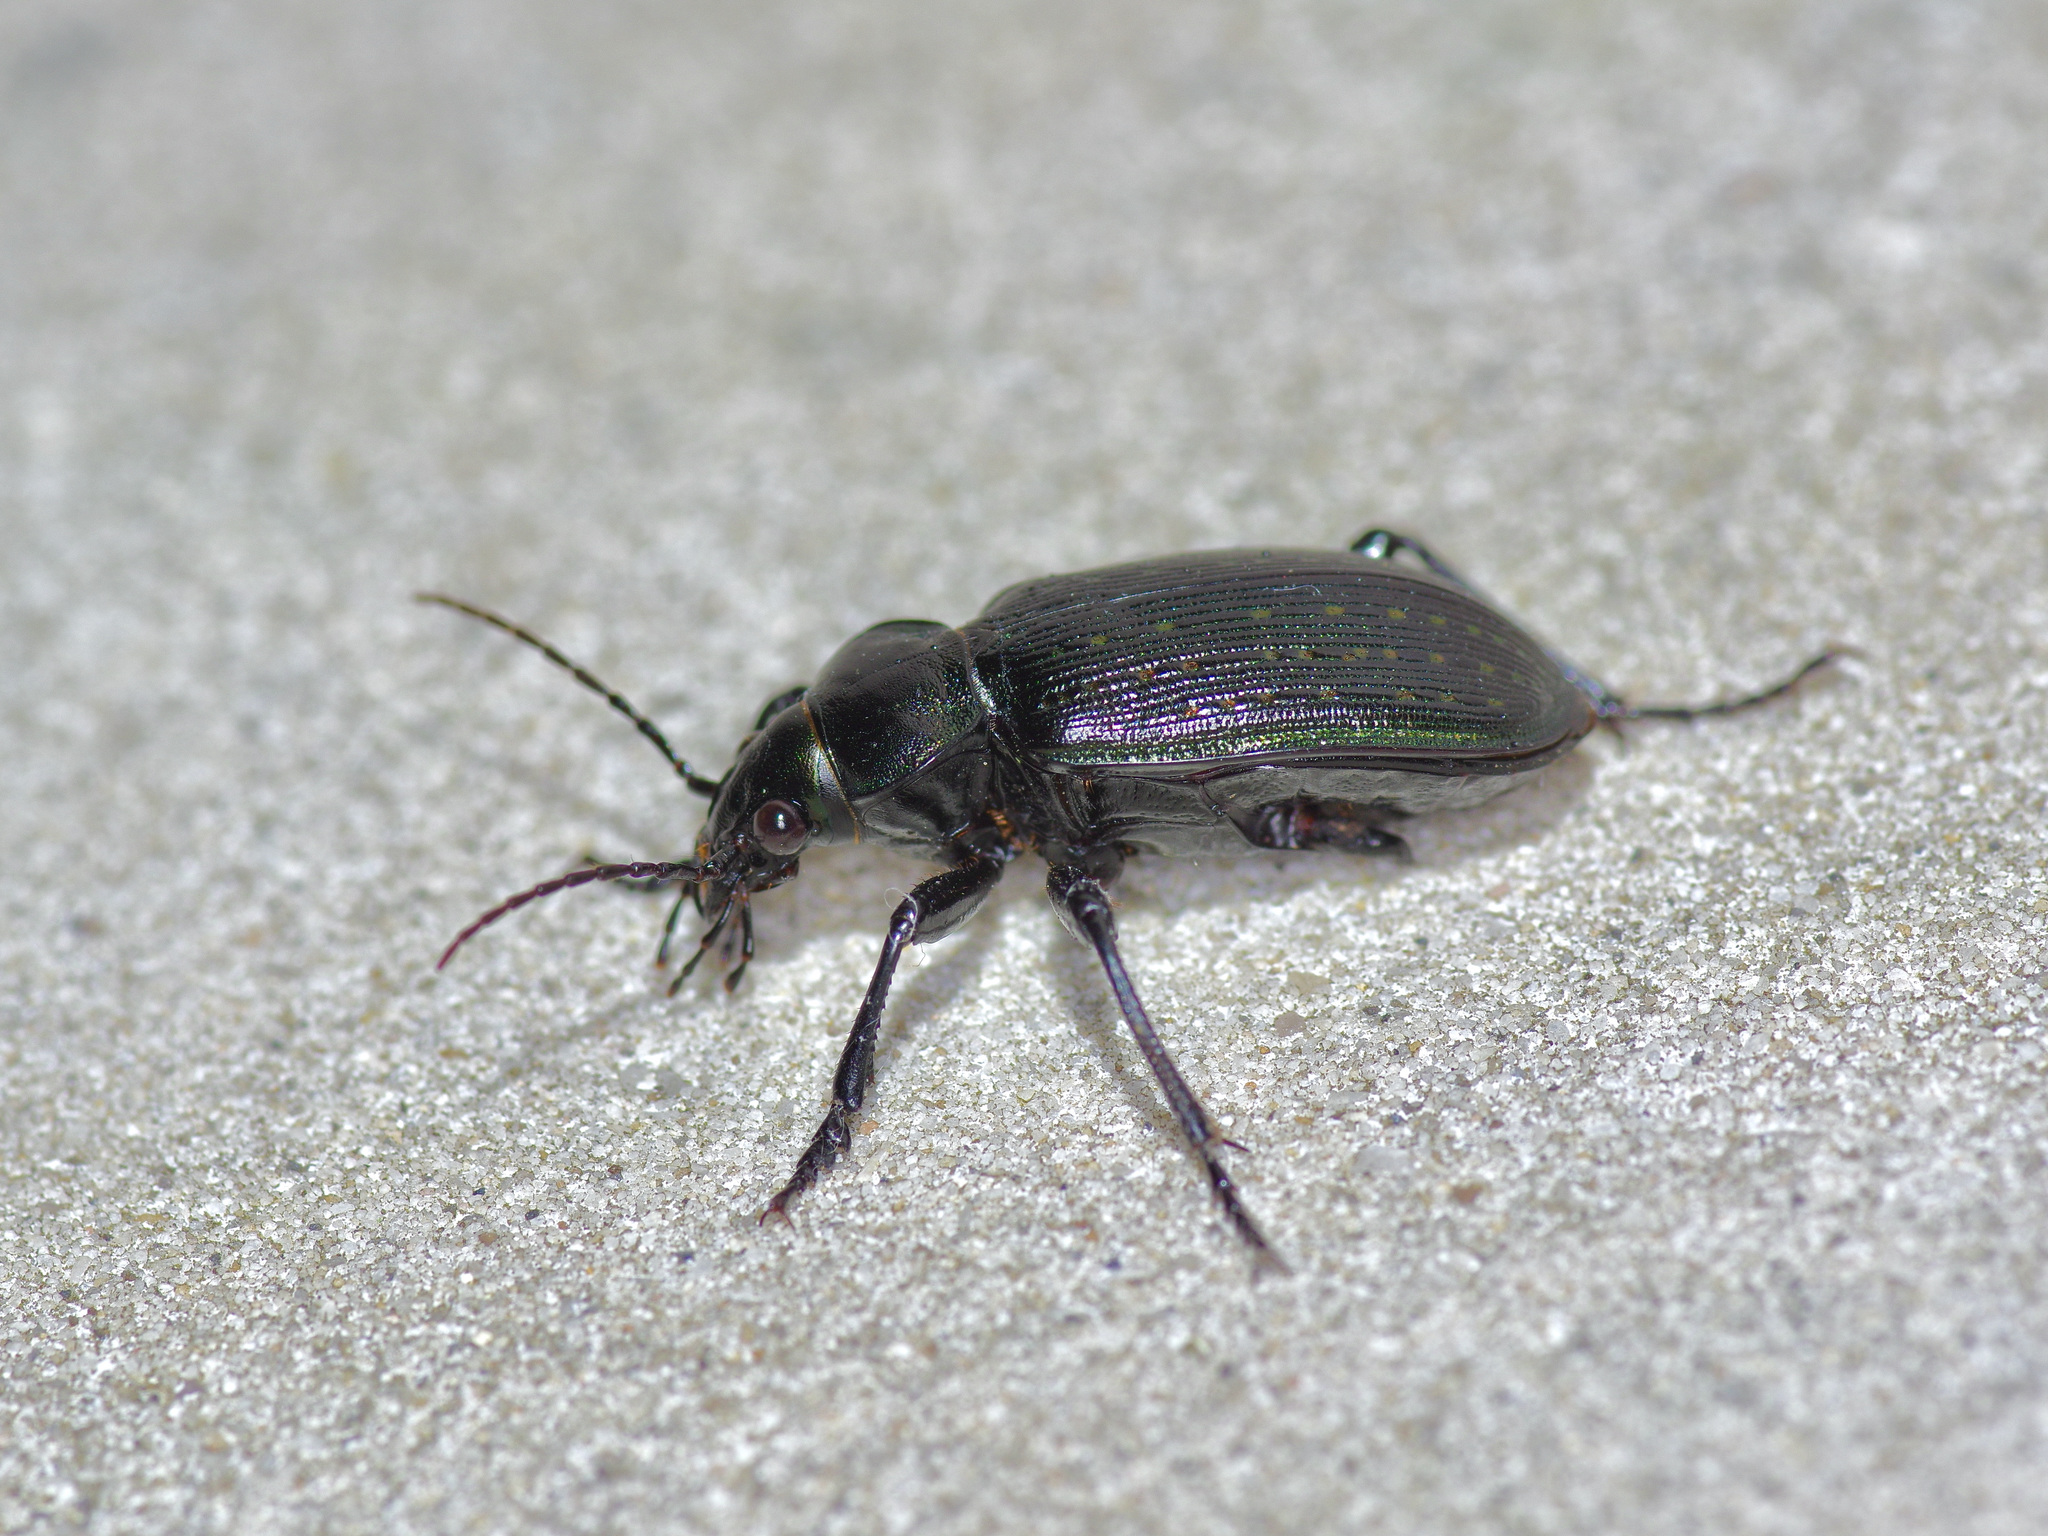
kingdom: Animalia
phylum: Arthropoda
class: Insecta
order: Coleoptera
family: Carabidae
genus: Calosoma
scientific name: Calosoma sayi
